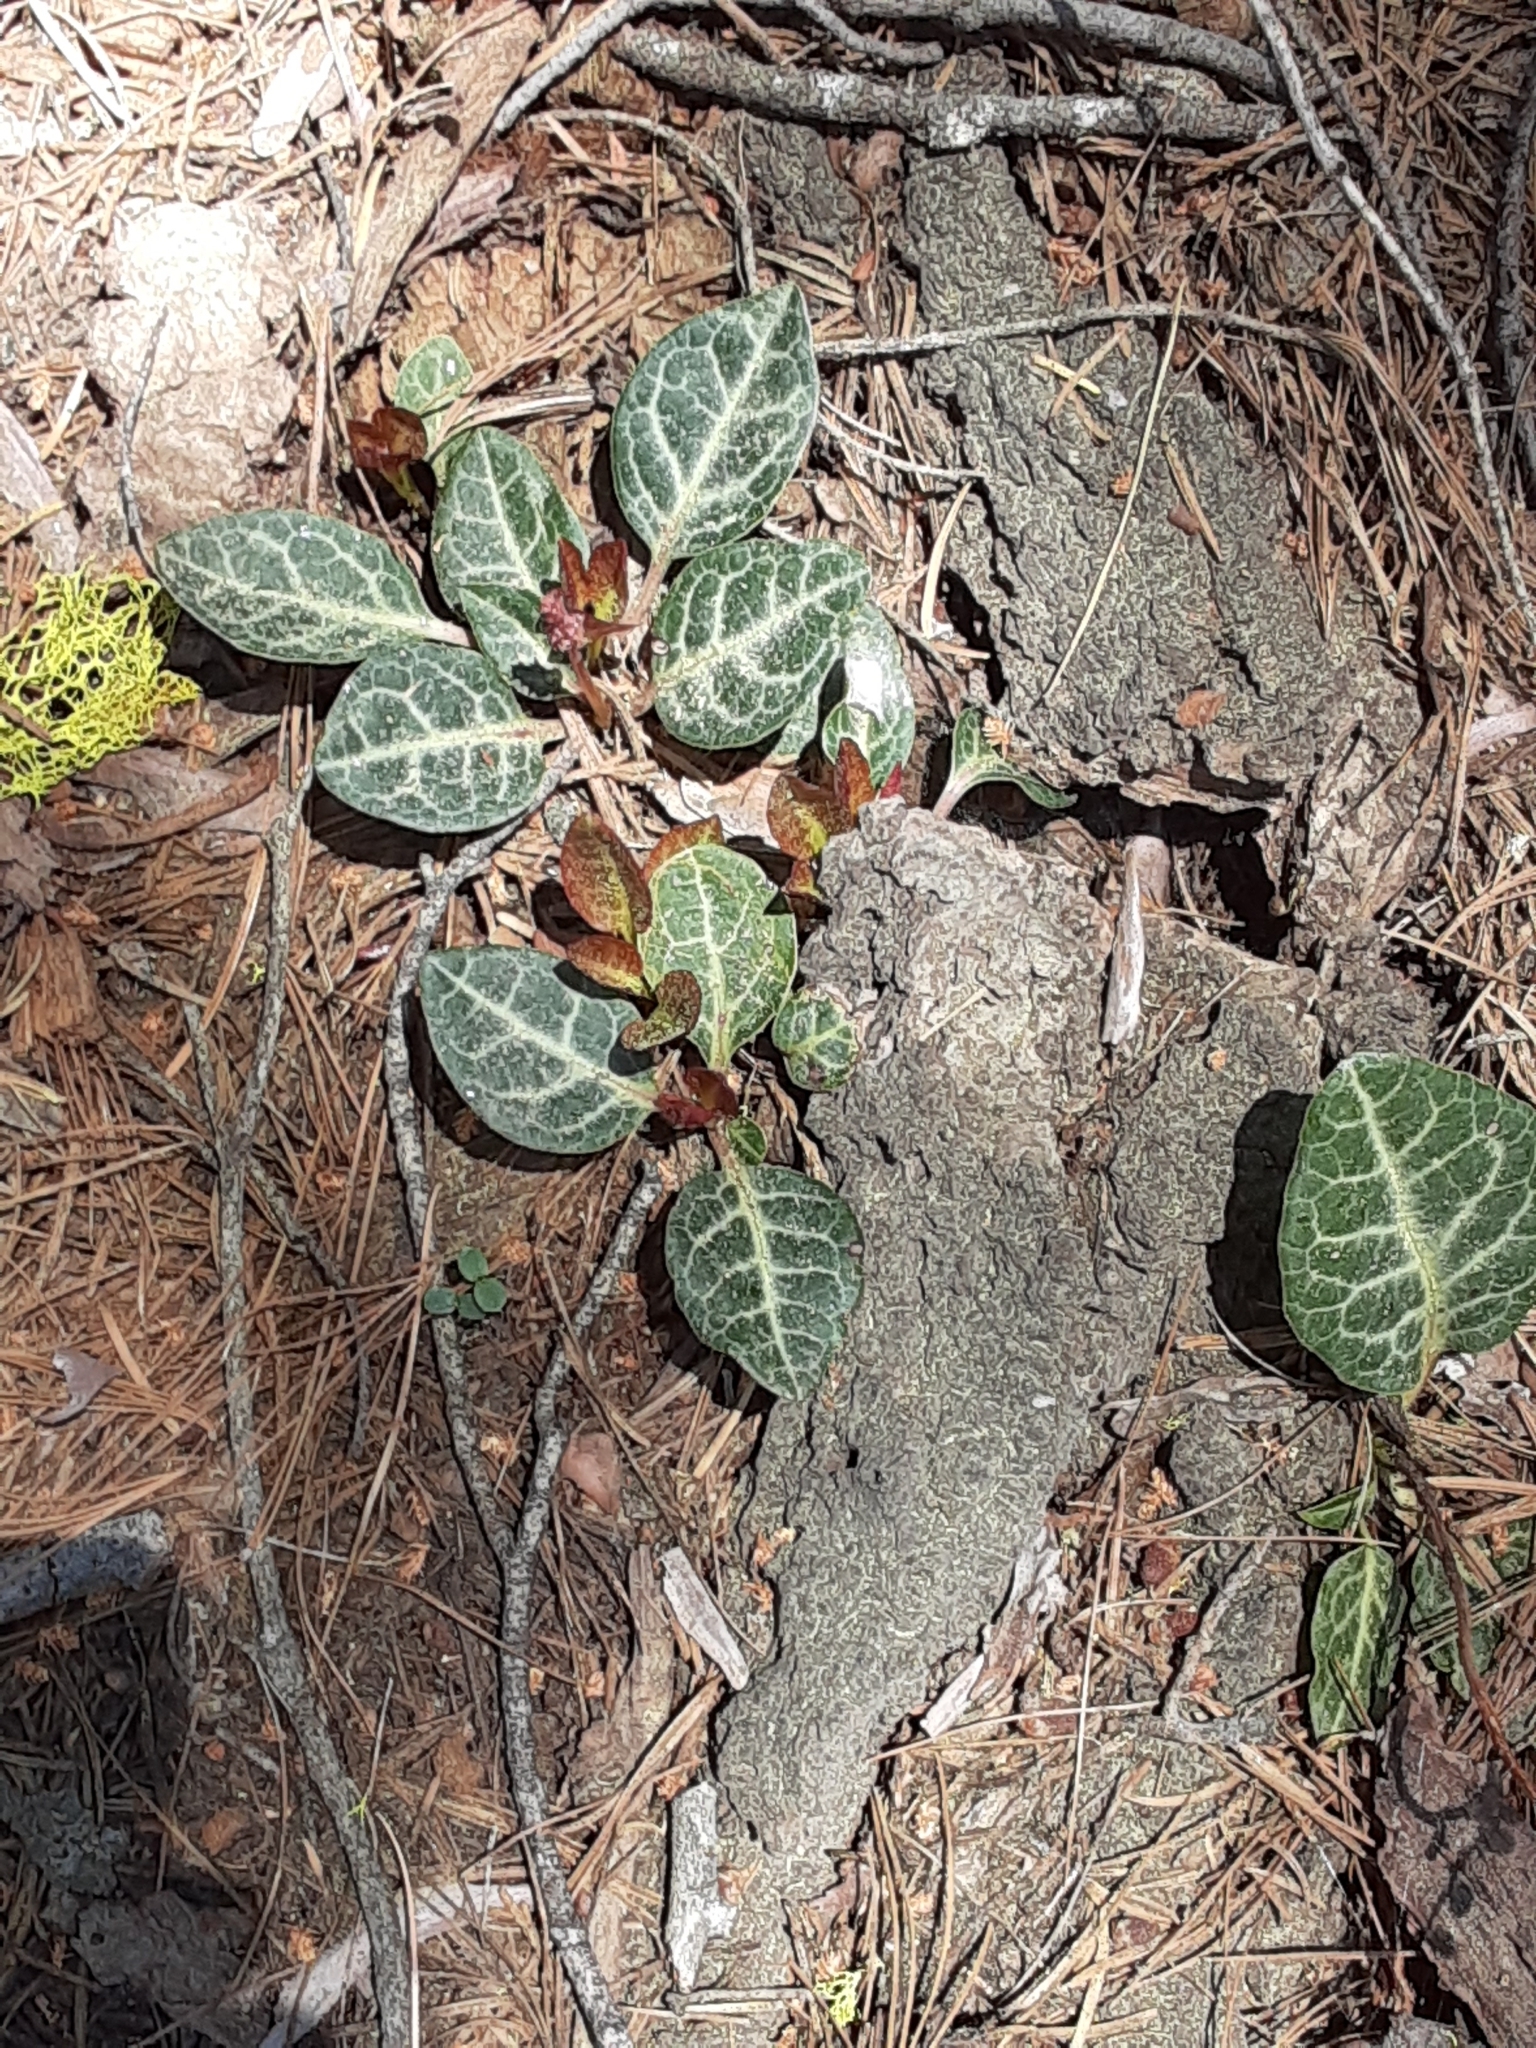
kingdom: Plantae
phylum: Tracheophyta
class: Magnoliopsida
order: Ericales
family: Ericaceae
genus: Pyrola
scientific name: Pyrola picta
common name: White-vein wintergreen
